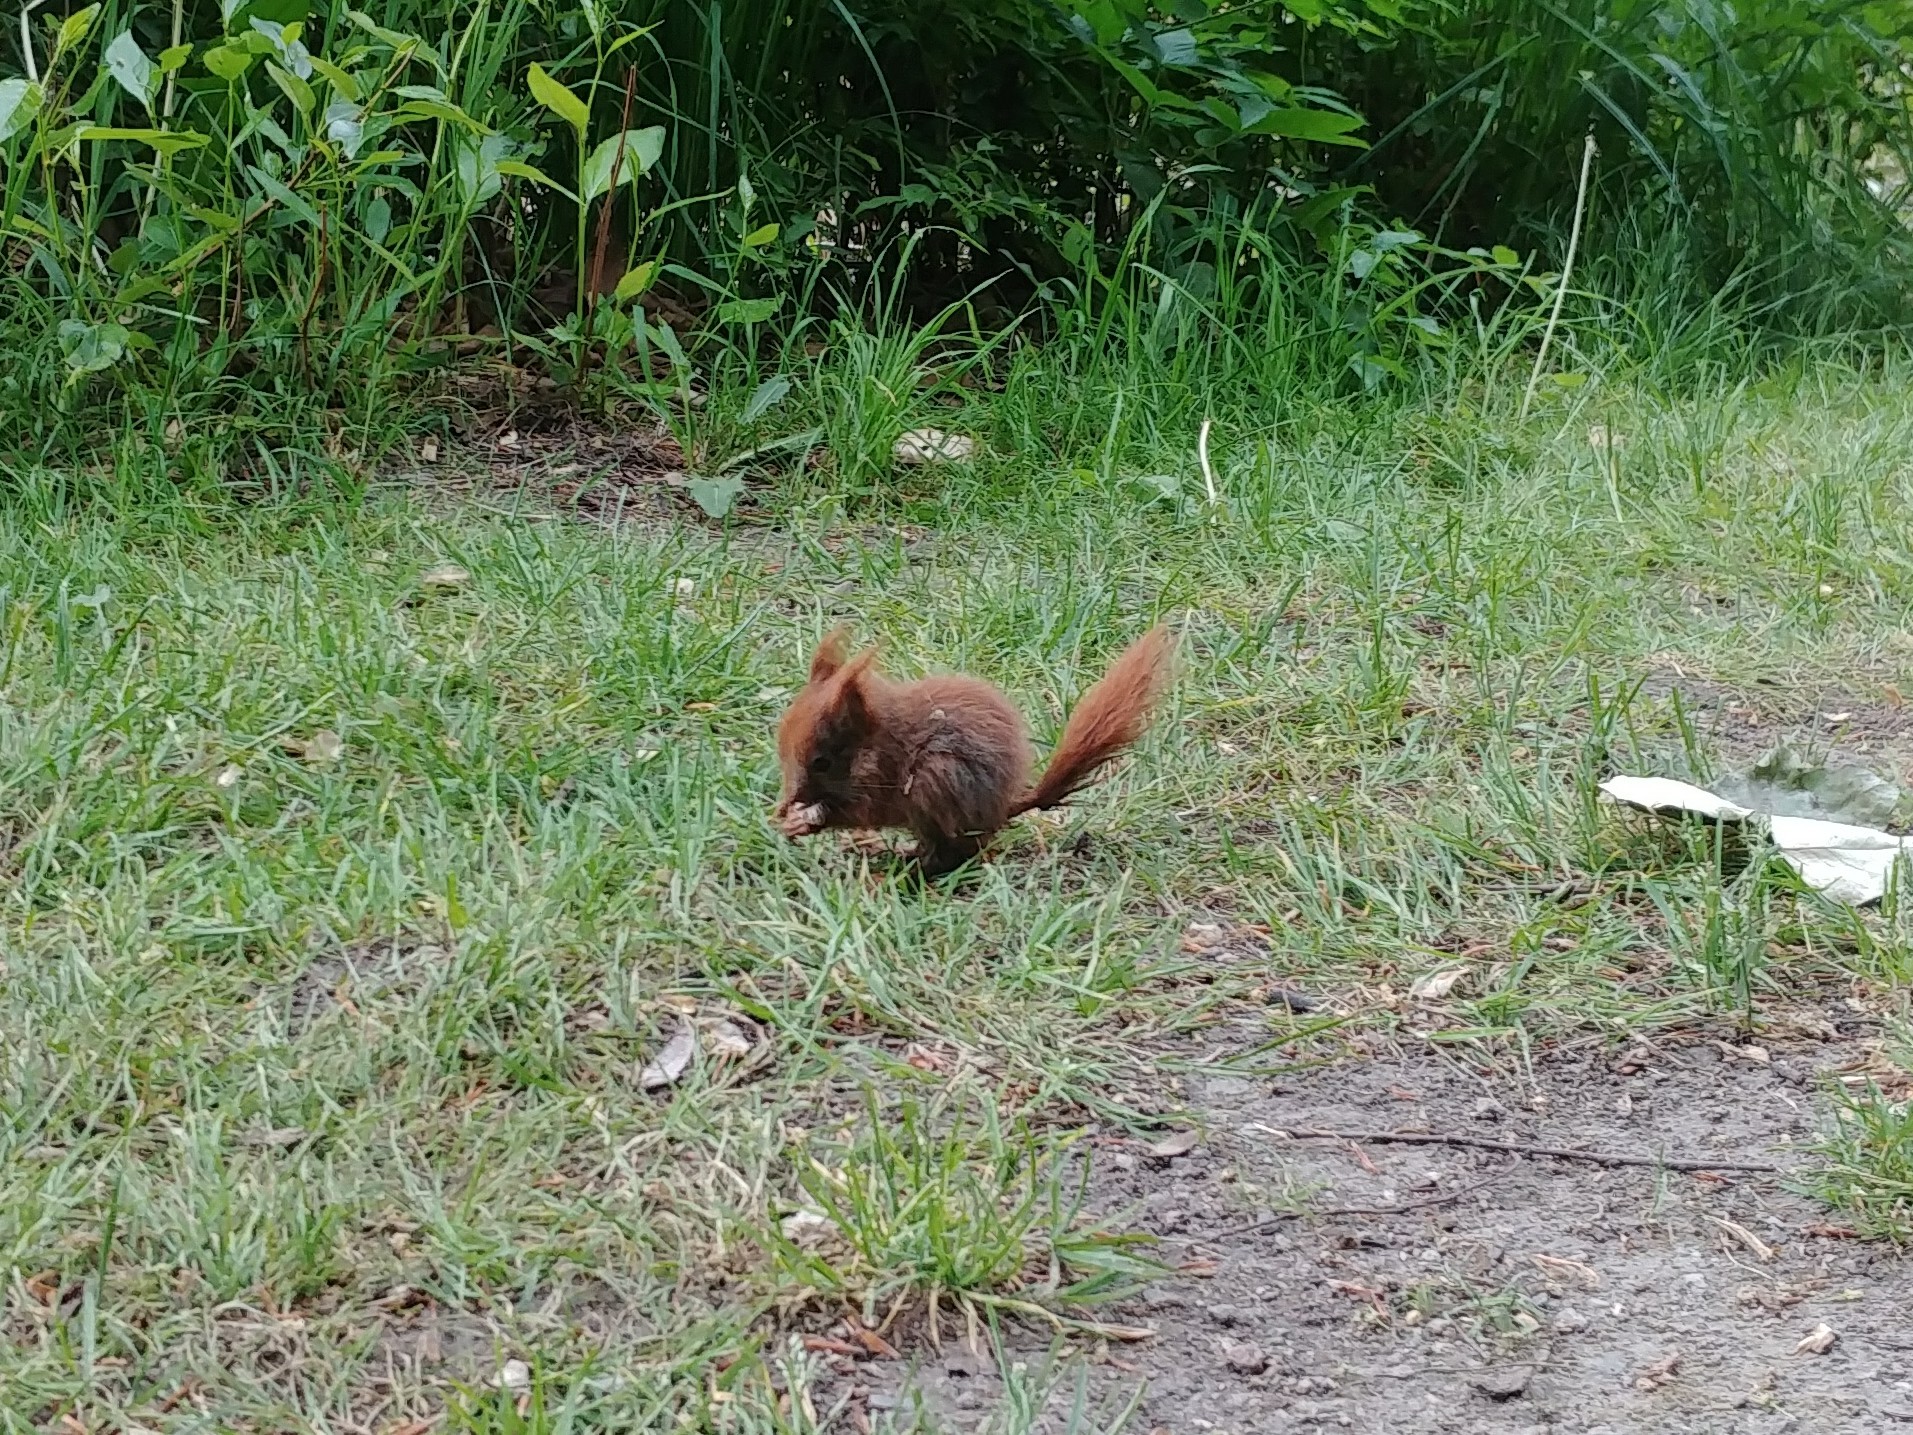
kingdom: Animalia
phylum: Chordata
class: Mammalia
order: Rodentia
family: Sciuridae
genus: Sciurus
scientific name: Sciurus vulgaris
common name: Eurasian red squirrel
